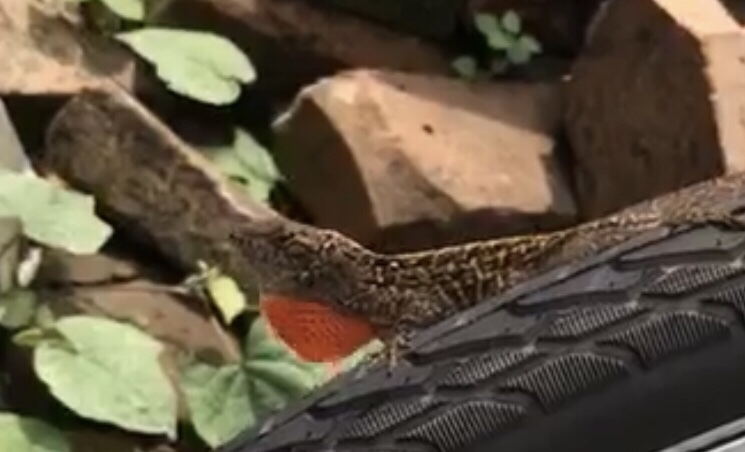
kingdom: Animalia
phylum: Chordata
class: Squamata
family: Dactyloidae
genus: Anolis
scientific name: Anolis sagrei
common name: Brown anole
